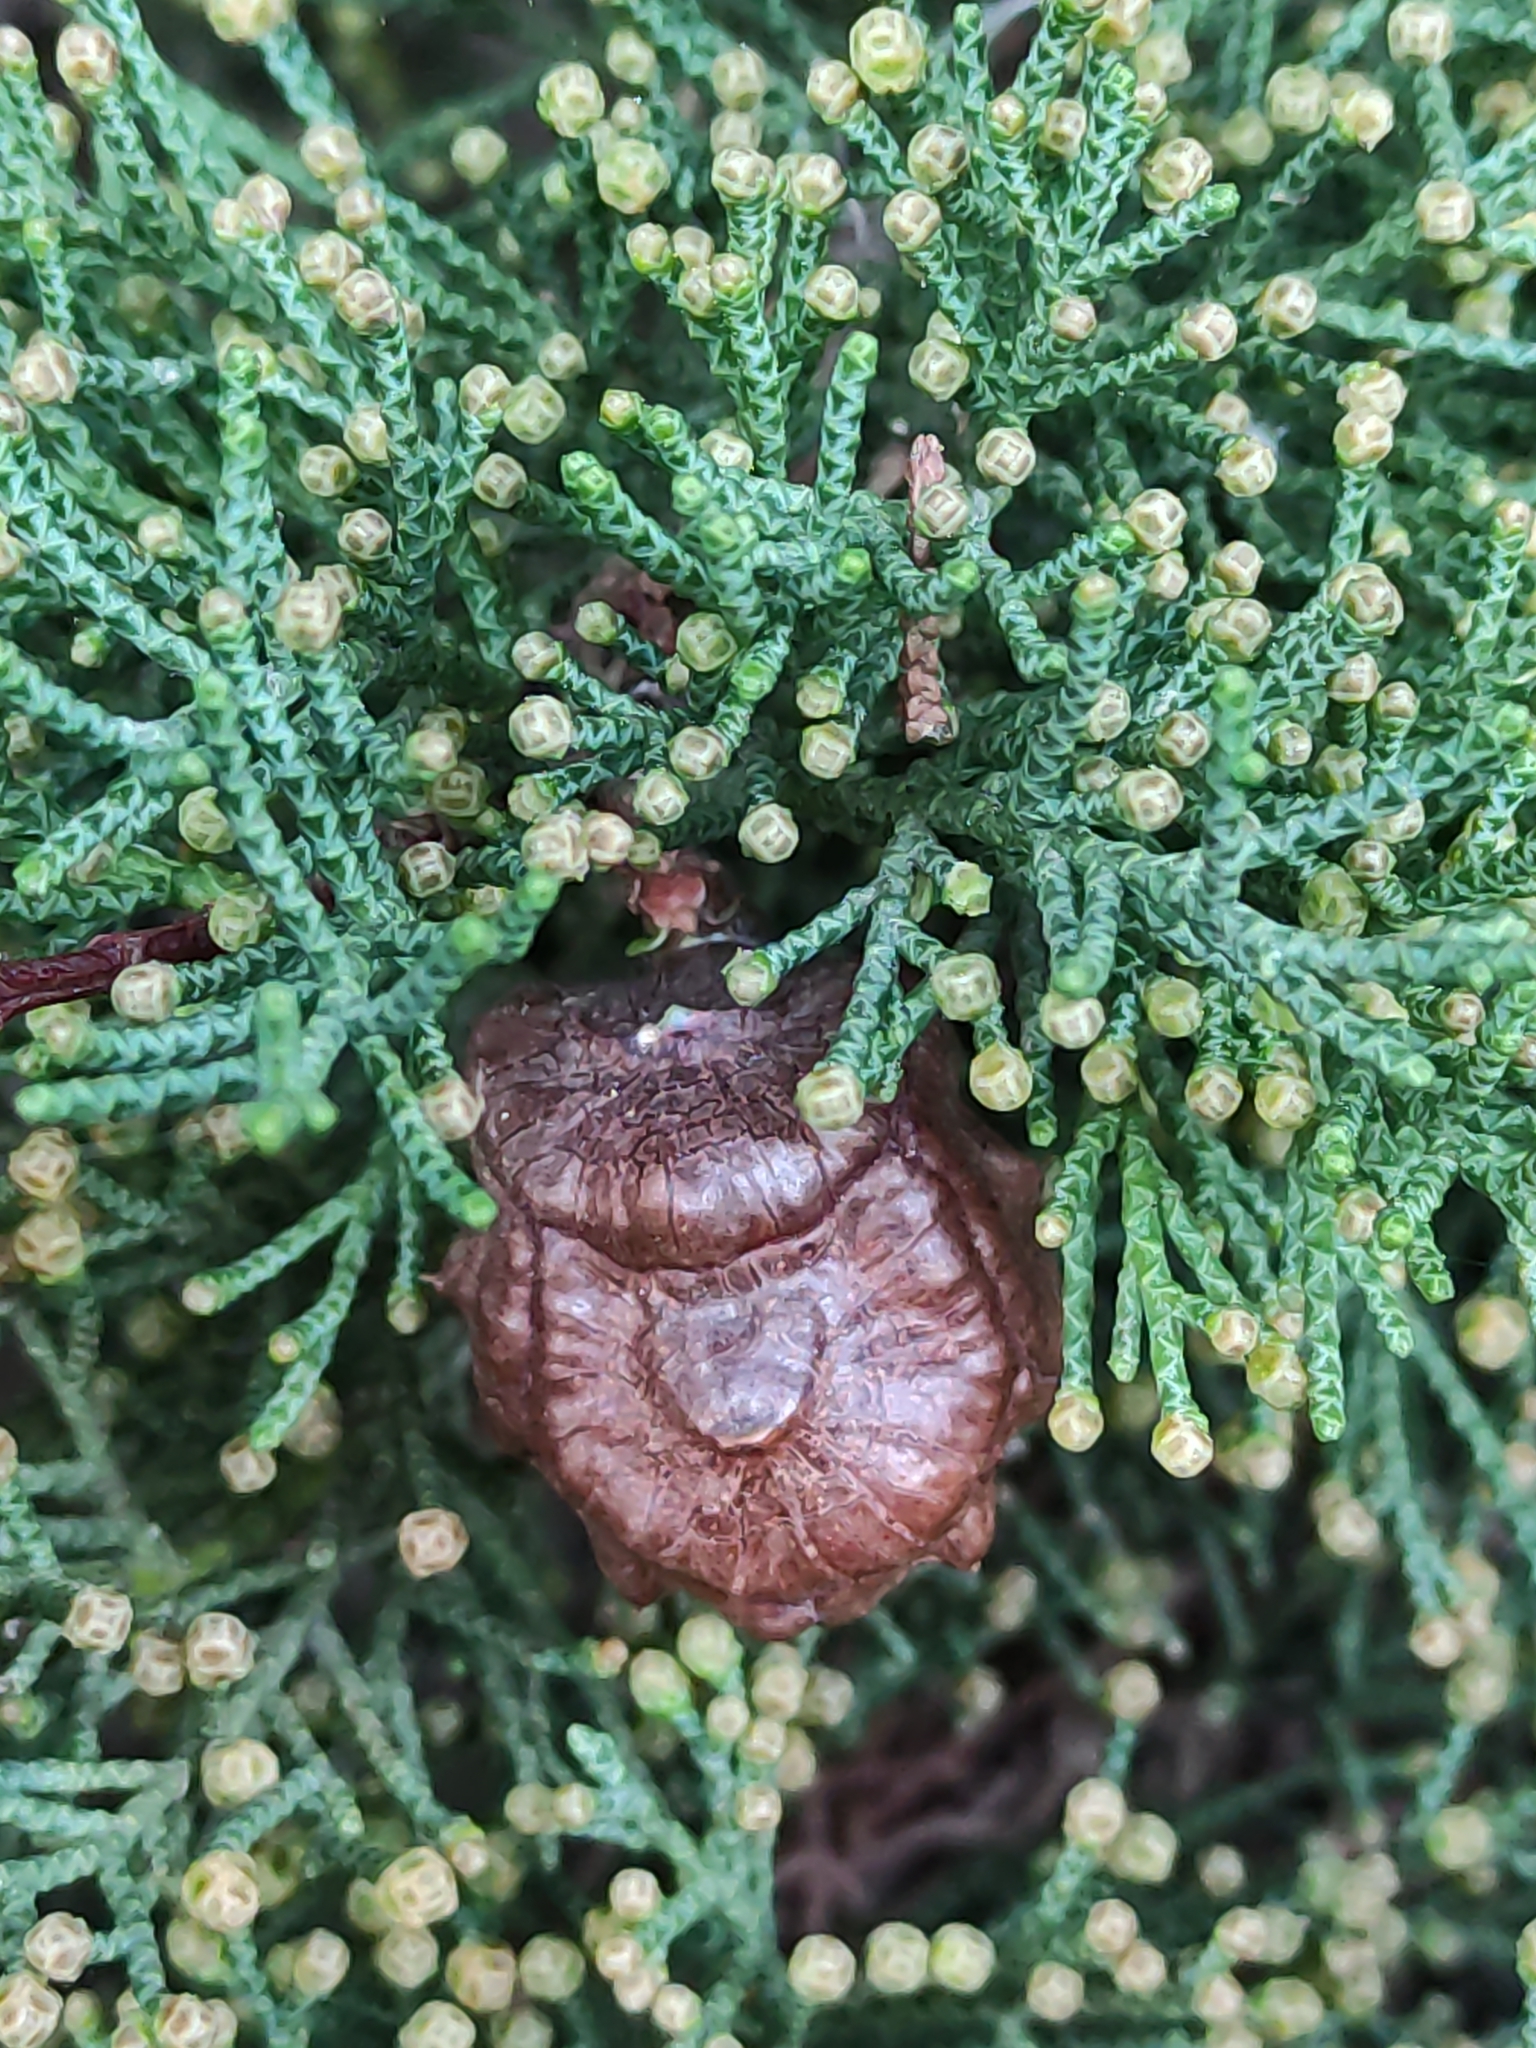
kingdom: Plantae
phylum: Tracheophyta
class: Pinopsida
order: Pinales
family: Cupressaceae
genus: Cupressus
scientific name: Cupressus macrocarpa
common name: Monterey cypress
